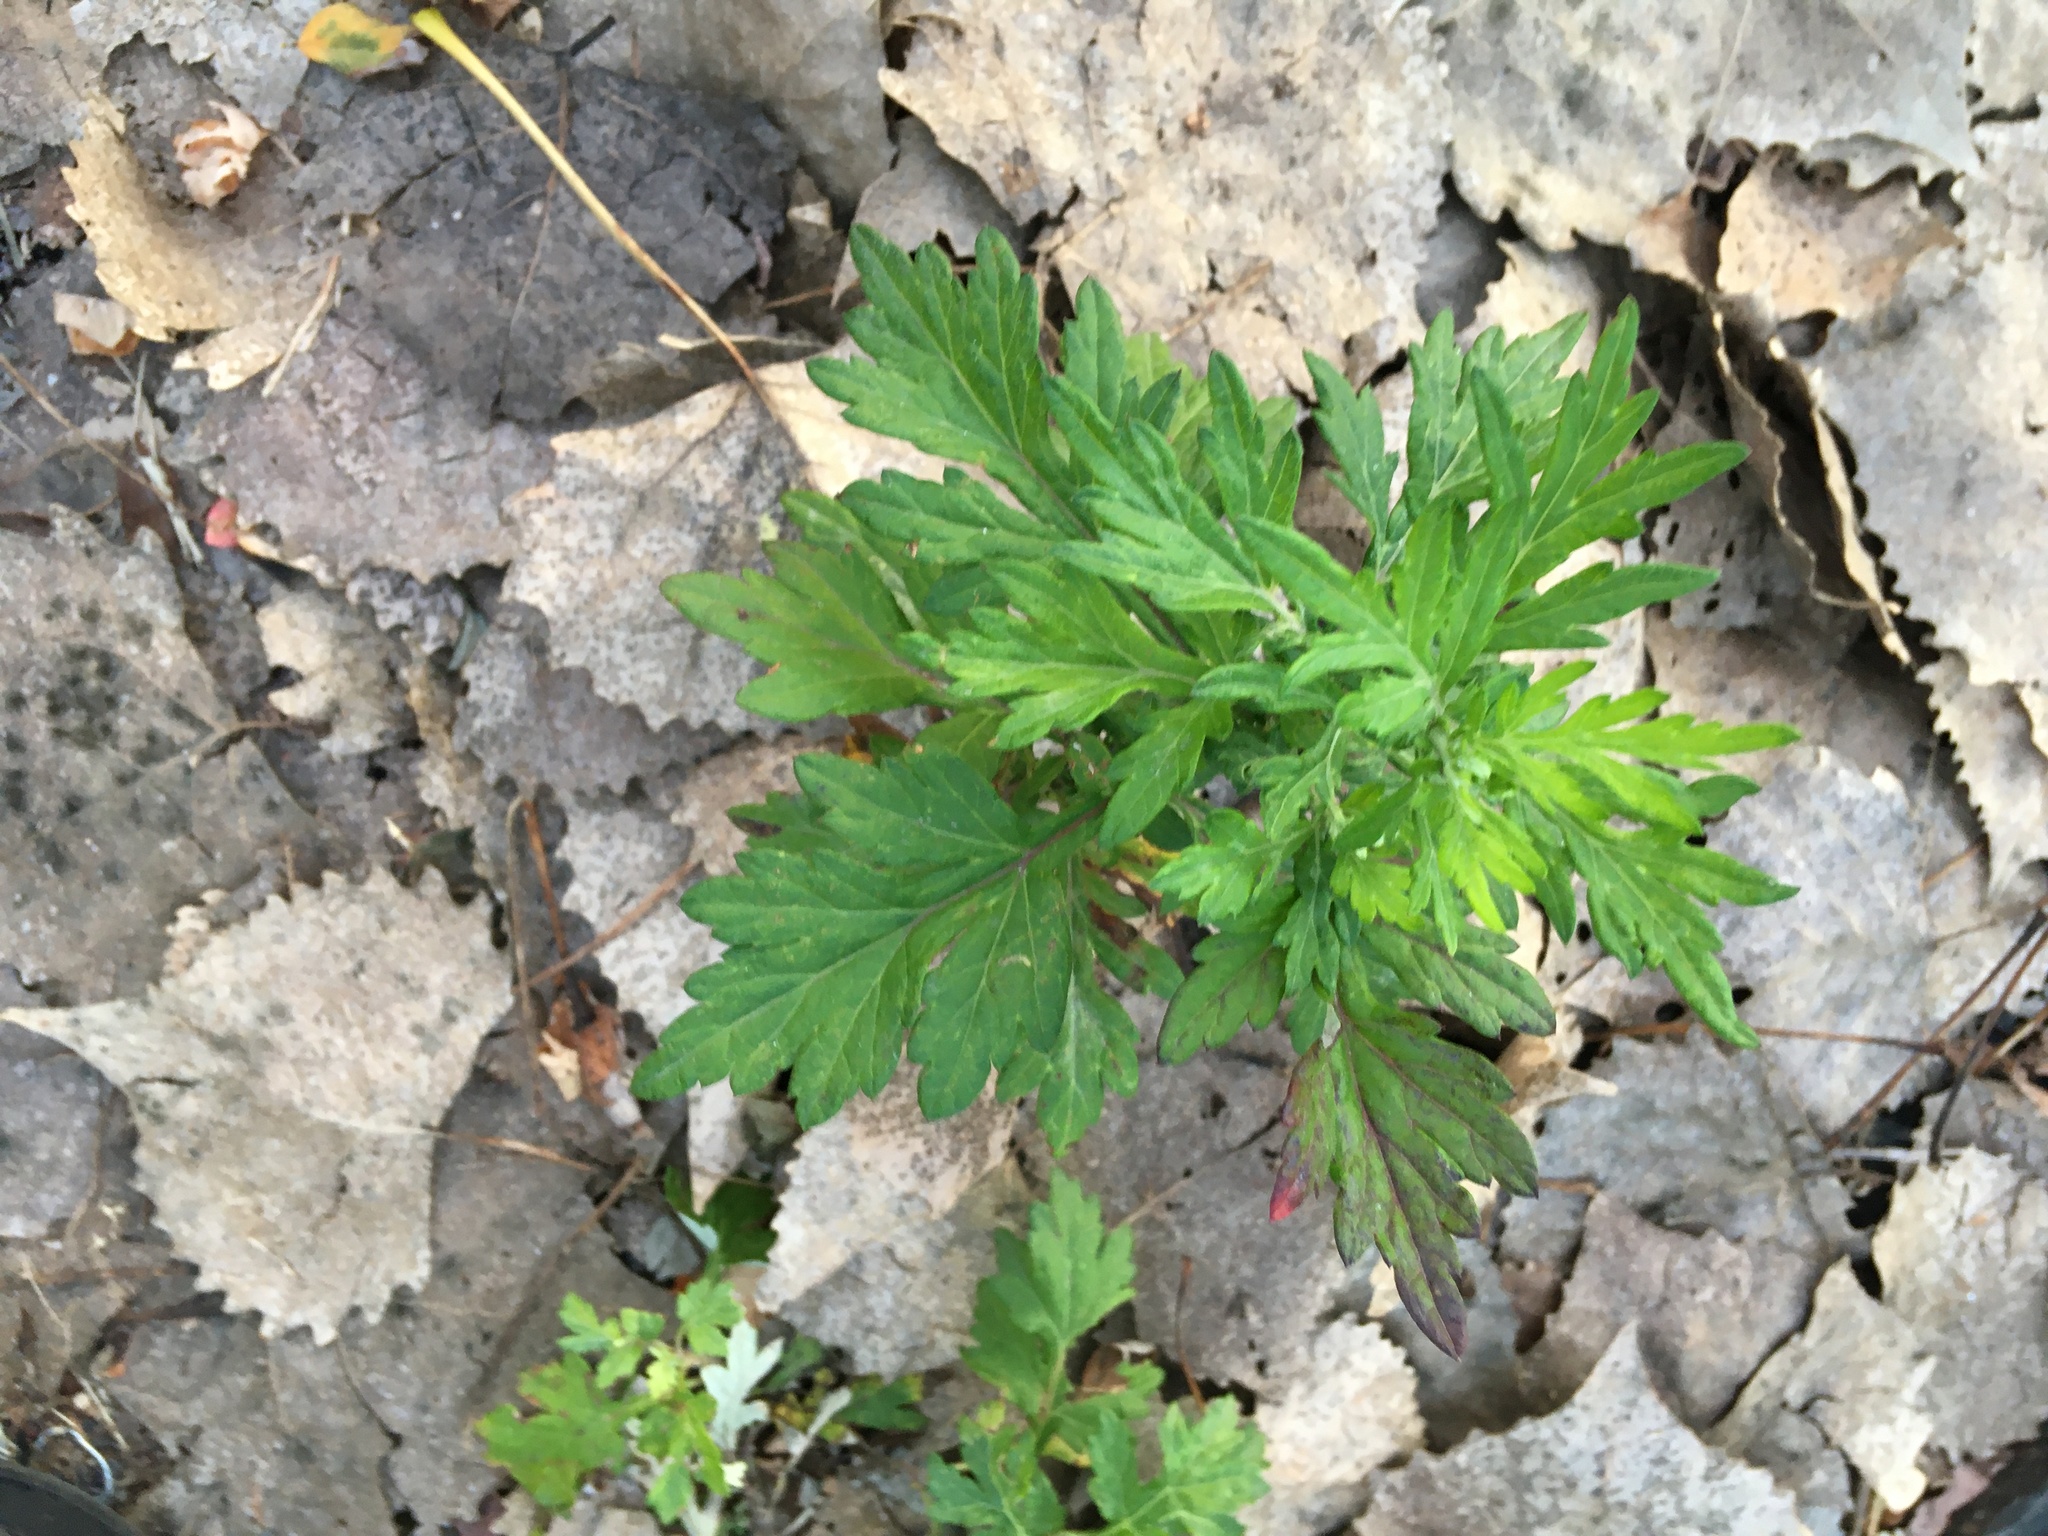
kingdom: Plantae
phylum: Tracheophyta
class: Magnoliopsida
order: Asterales
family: Asteraceae
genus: Artemisia
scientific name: Artemisia vulgaris
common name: Mugwort
